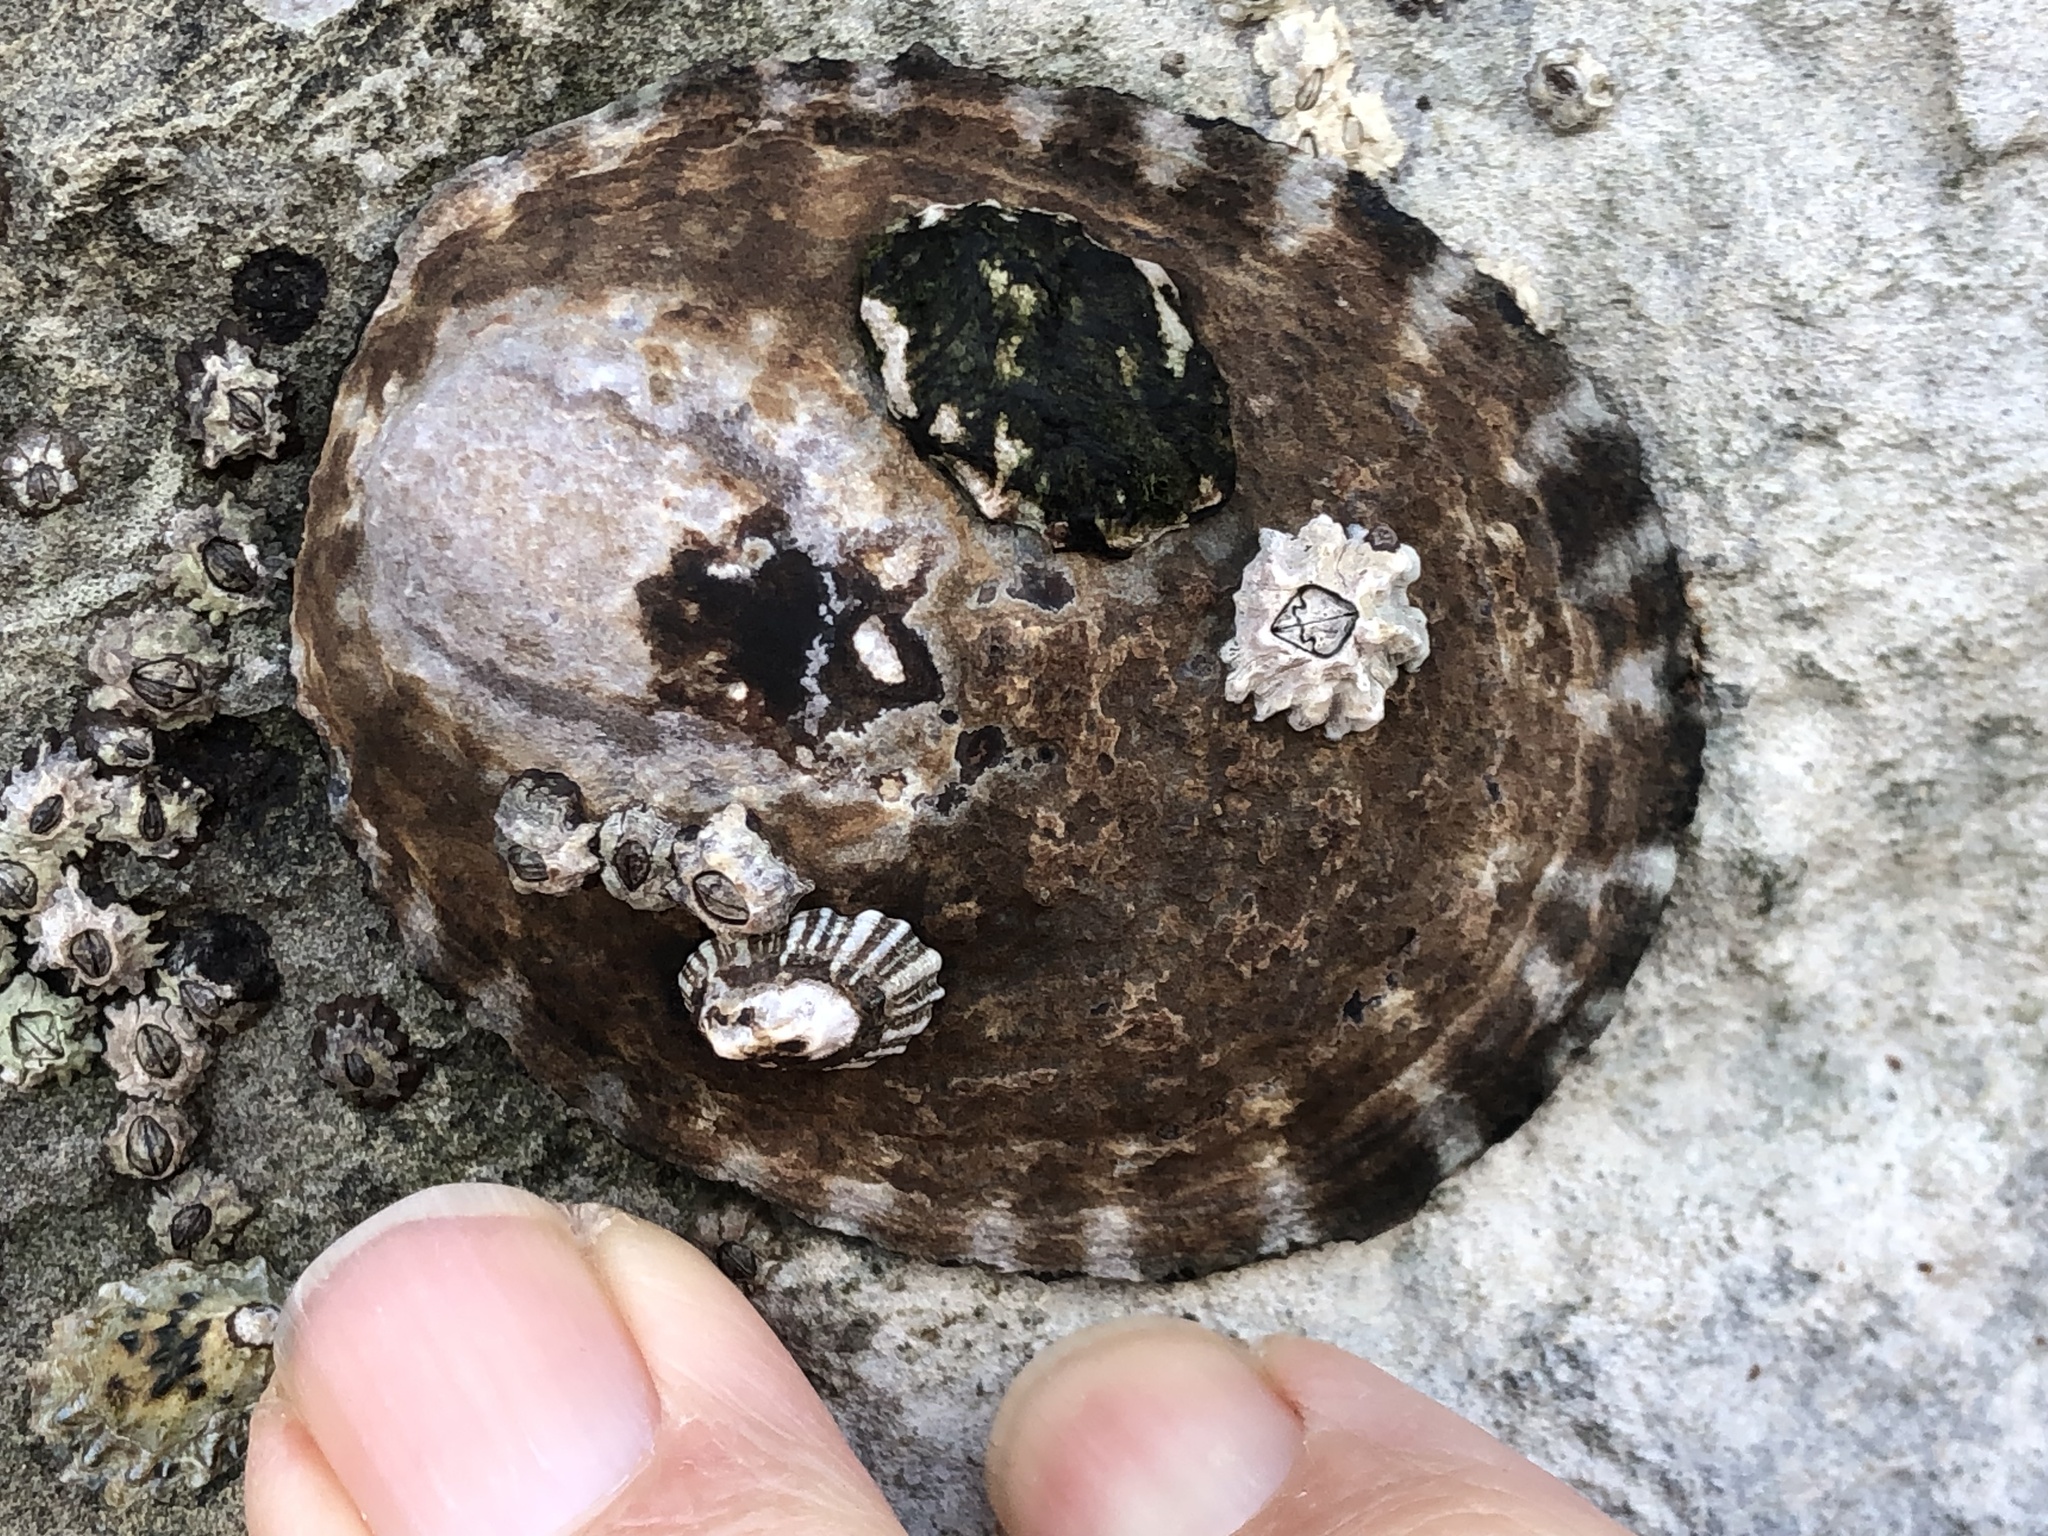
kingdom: Animalia
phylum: Mollusca
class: Gastropoda
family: Lottiidae
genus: Lottia
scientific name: Lottia gigantea
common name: Owl limpet
